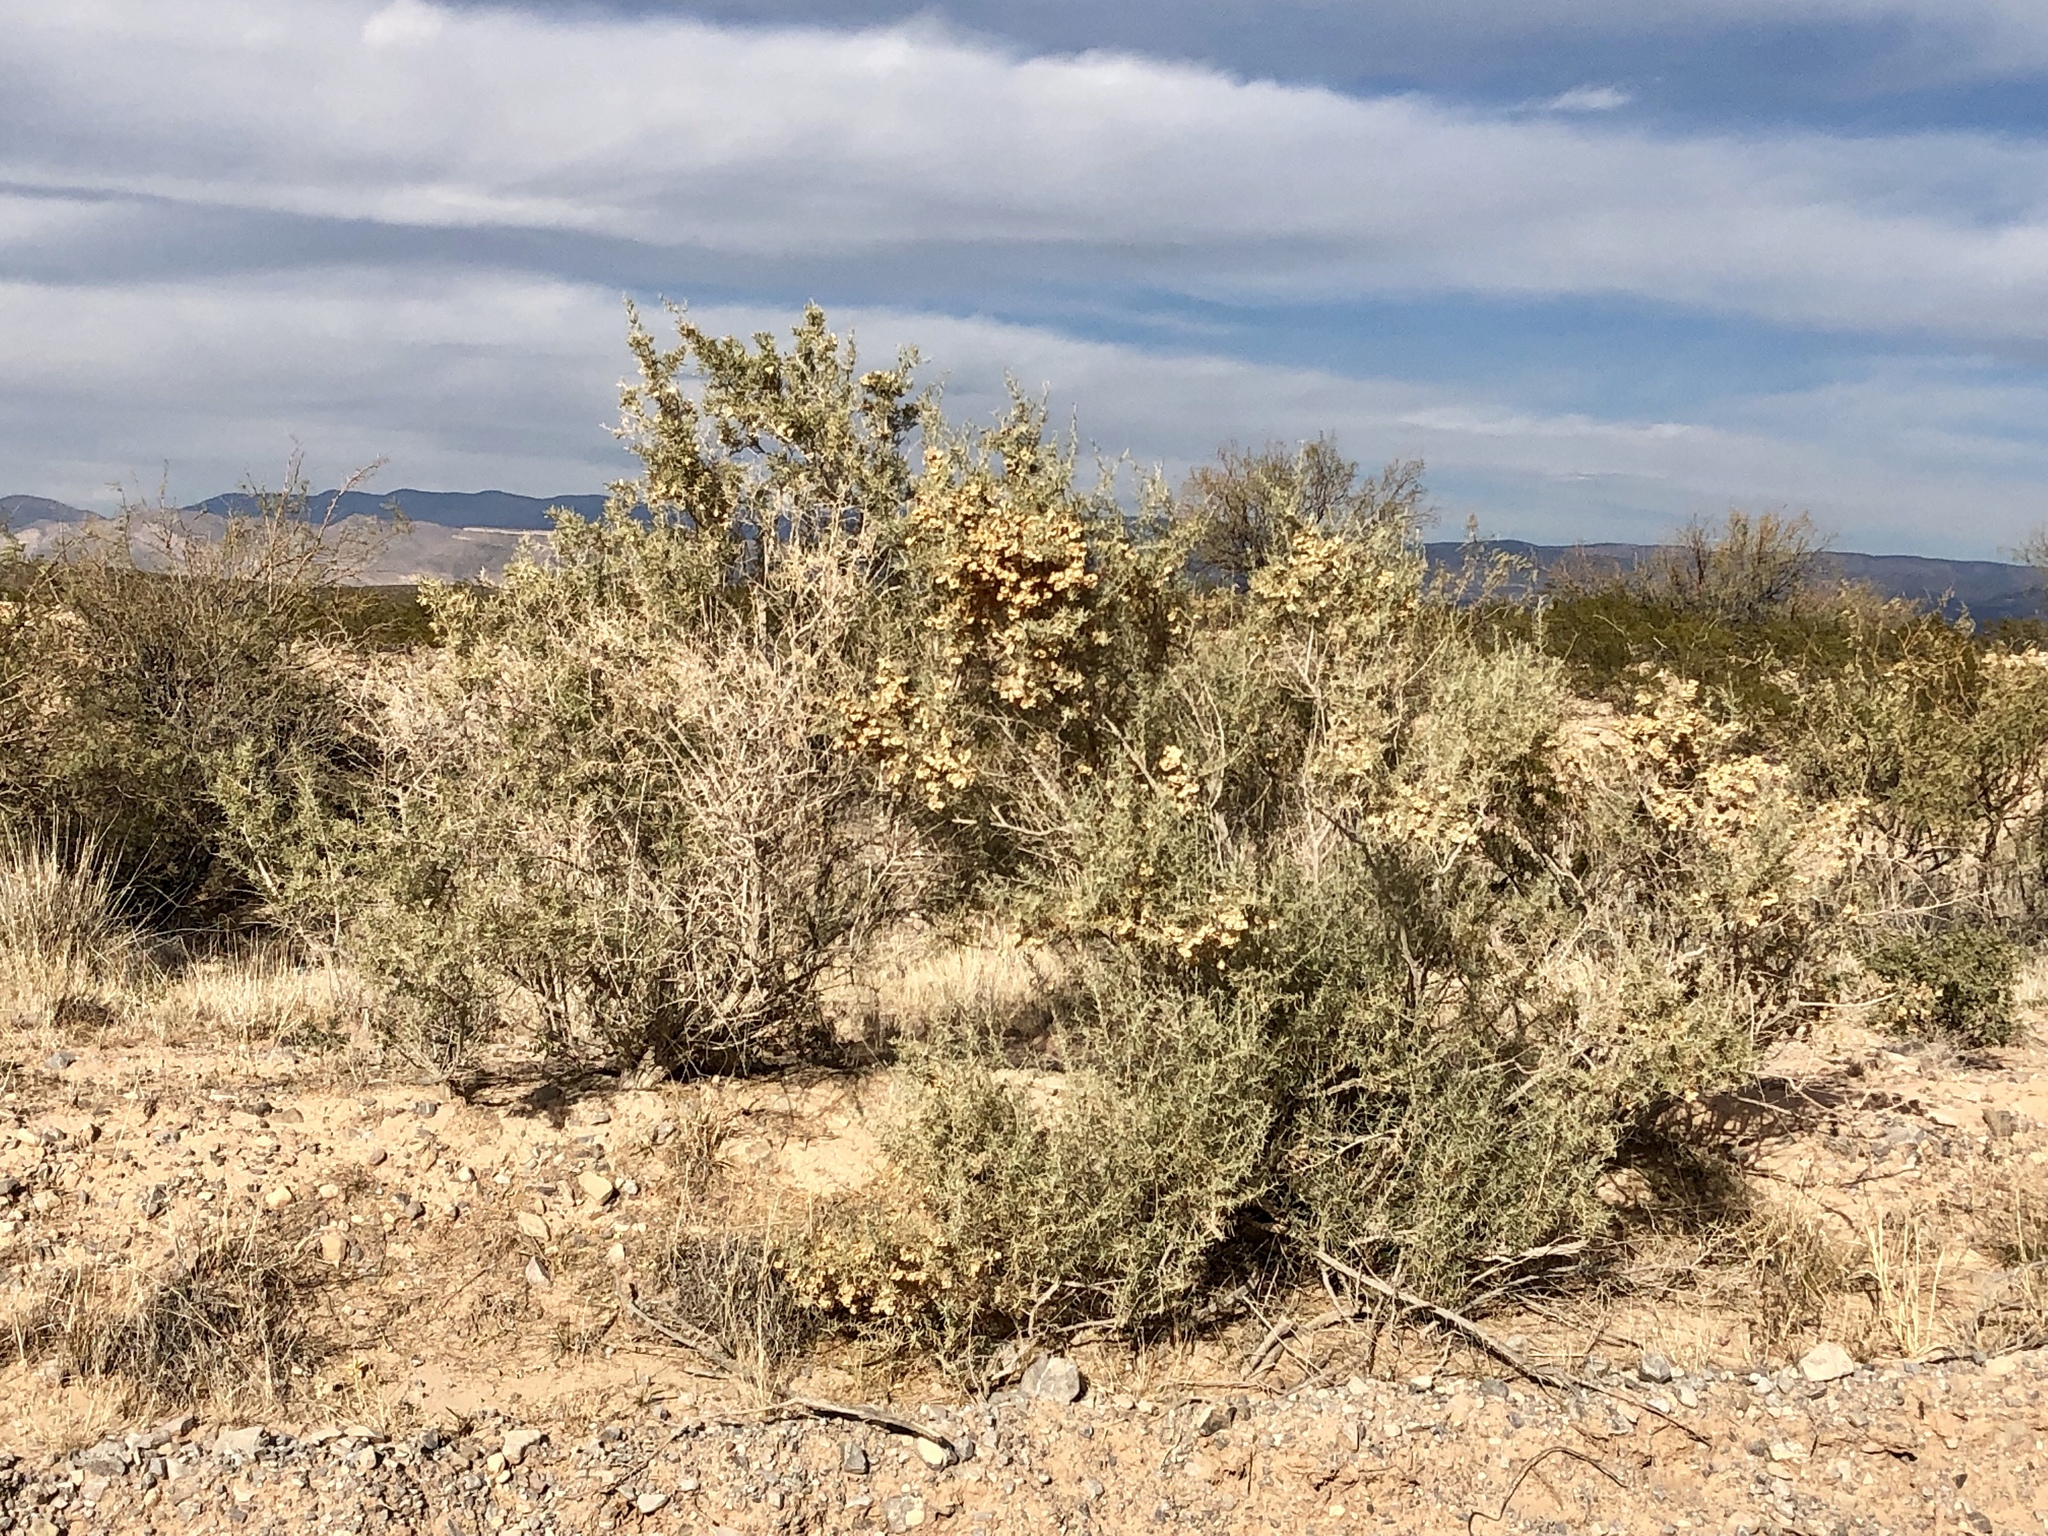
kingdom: Plantae
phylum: Tracheophyta
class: Magnoliopsida
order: Caryophyllales
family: Amaranthaceae
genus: Atriplex
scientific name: Atriplex canescens
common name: Four-wing saltbush
